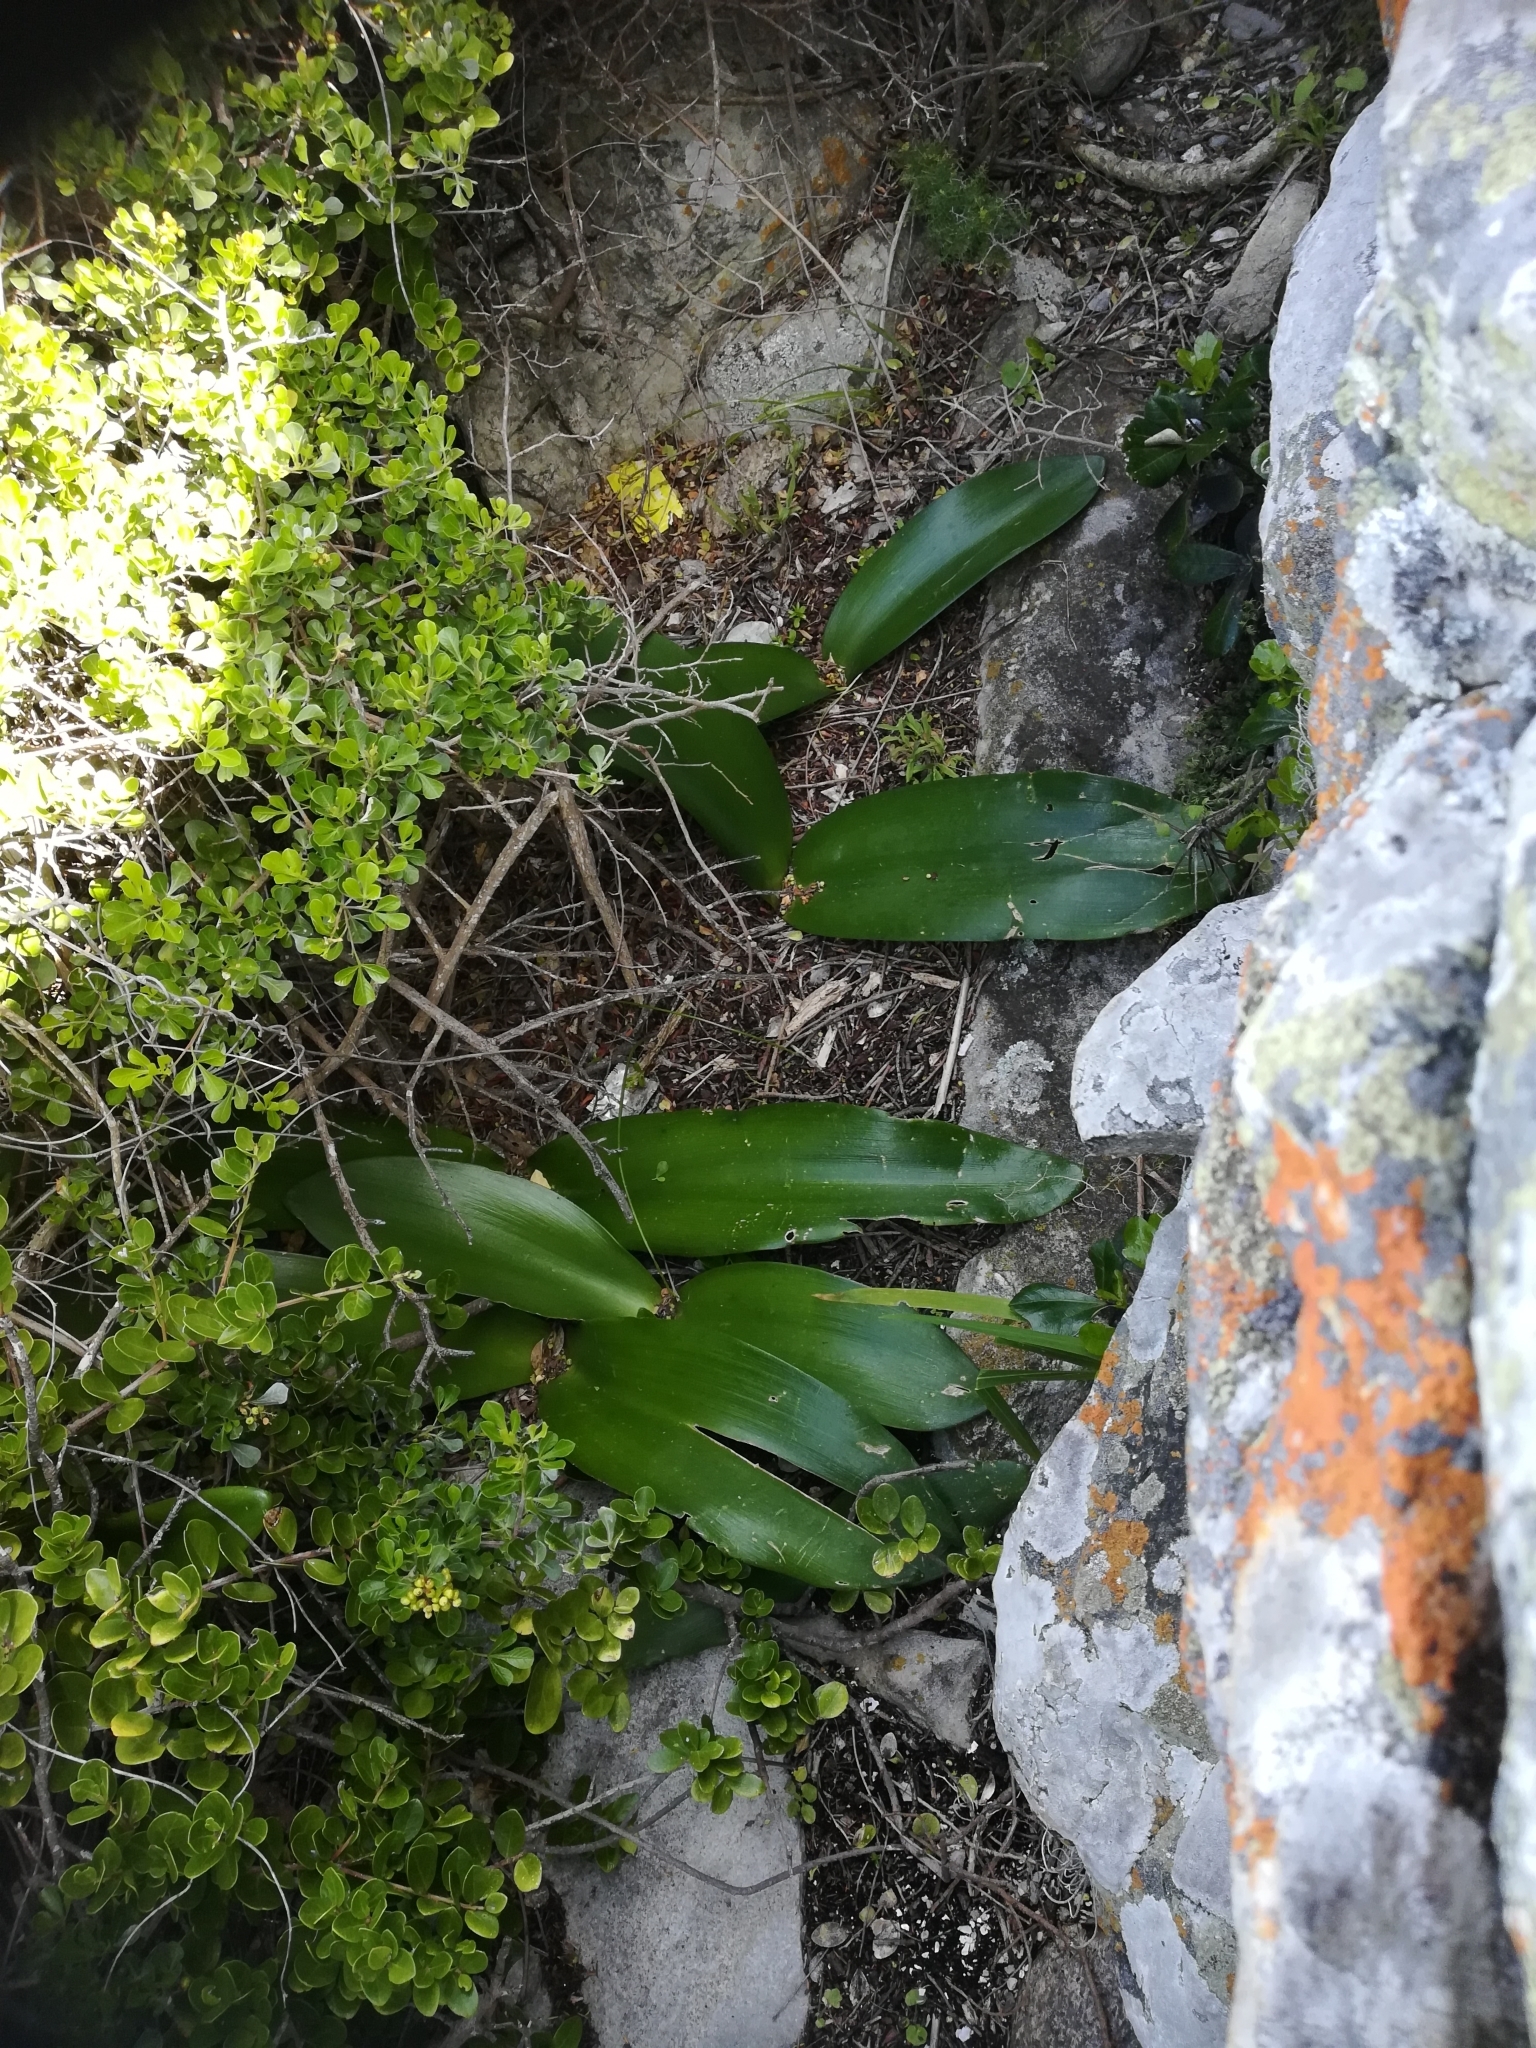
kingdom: Plantae
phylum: Tracheophyta
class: Liliopsida
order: Asparagales
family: Amaryllidaceae
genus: Haemanthus
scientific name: Haemanthus coccineus
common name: Cape-tulip
